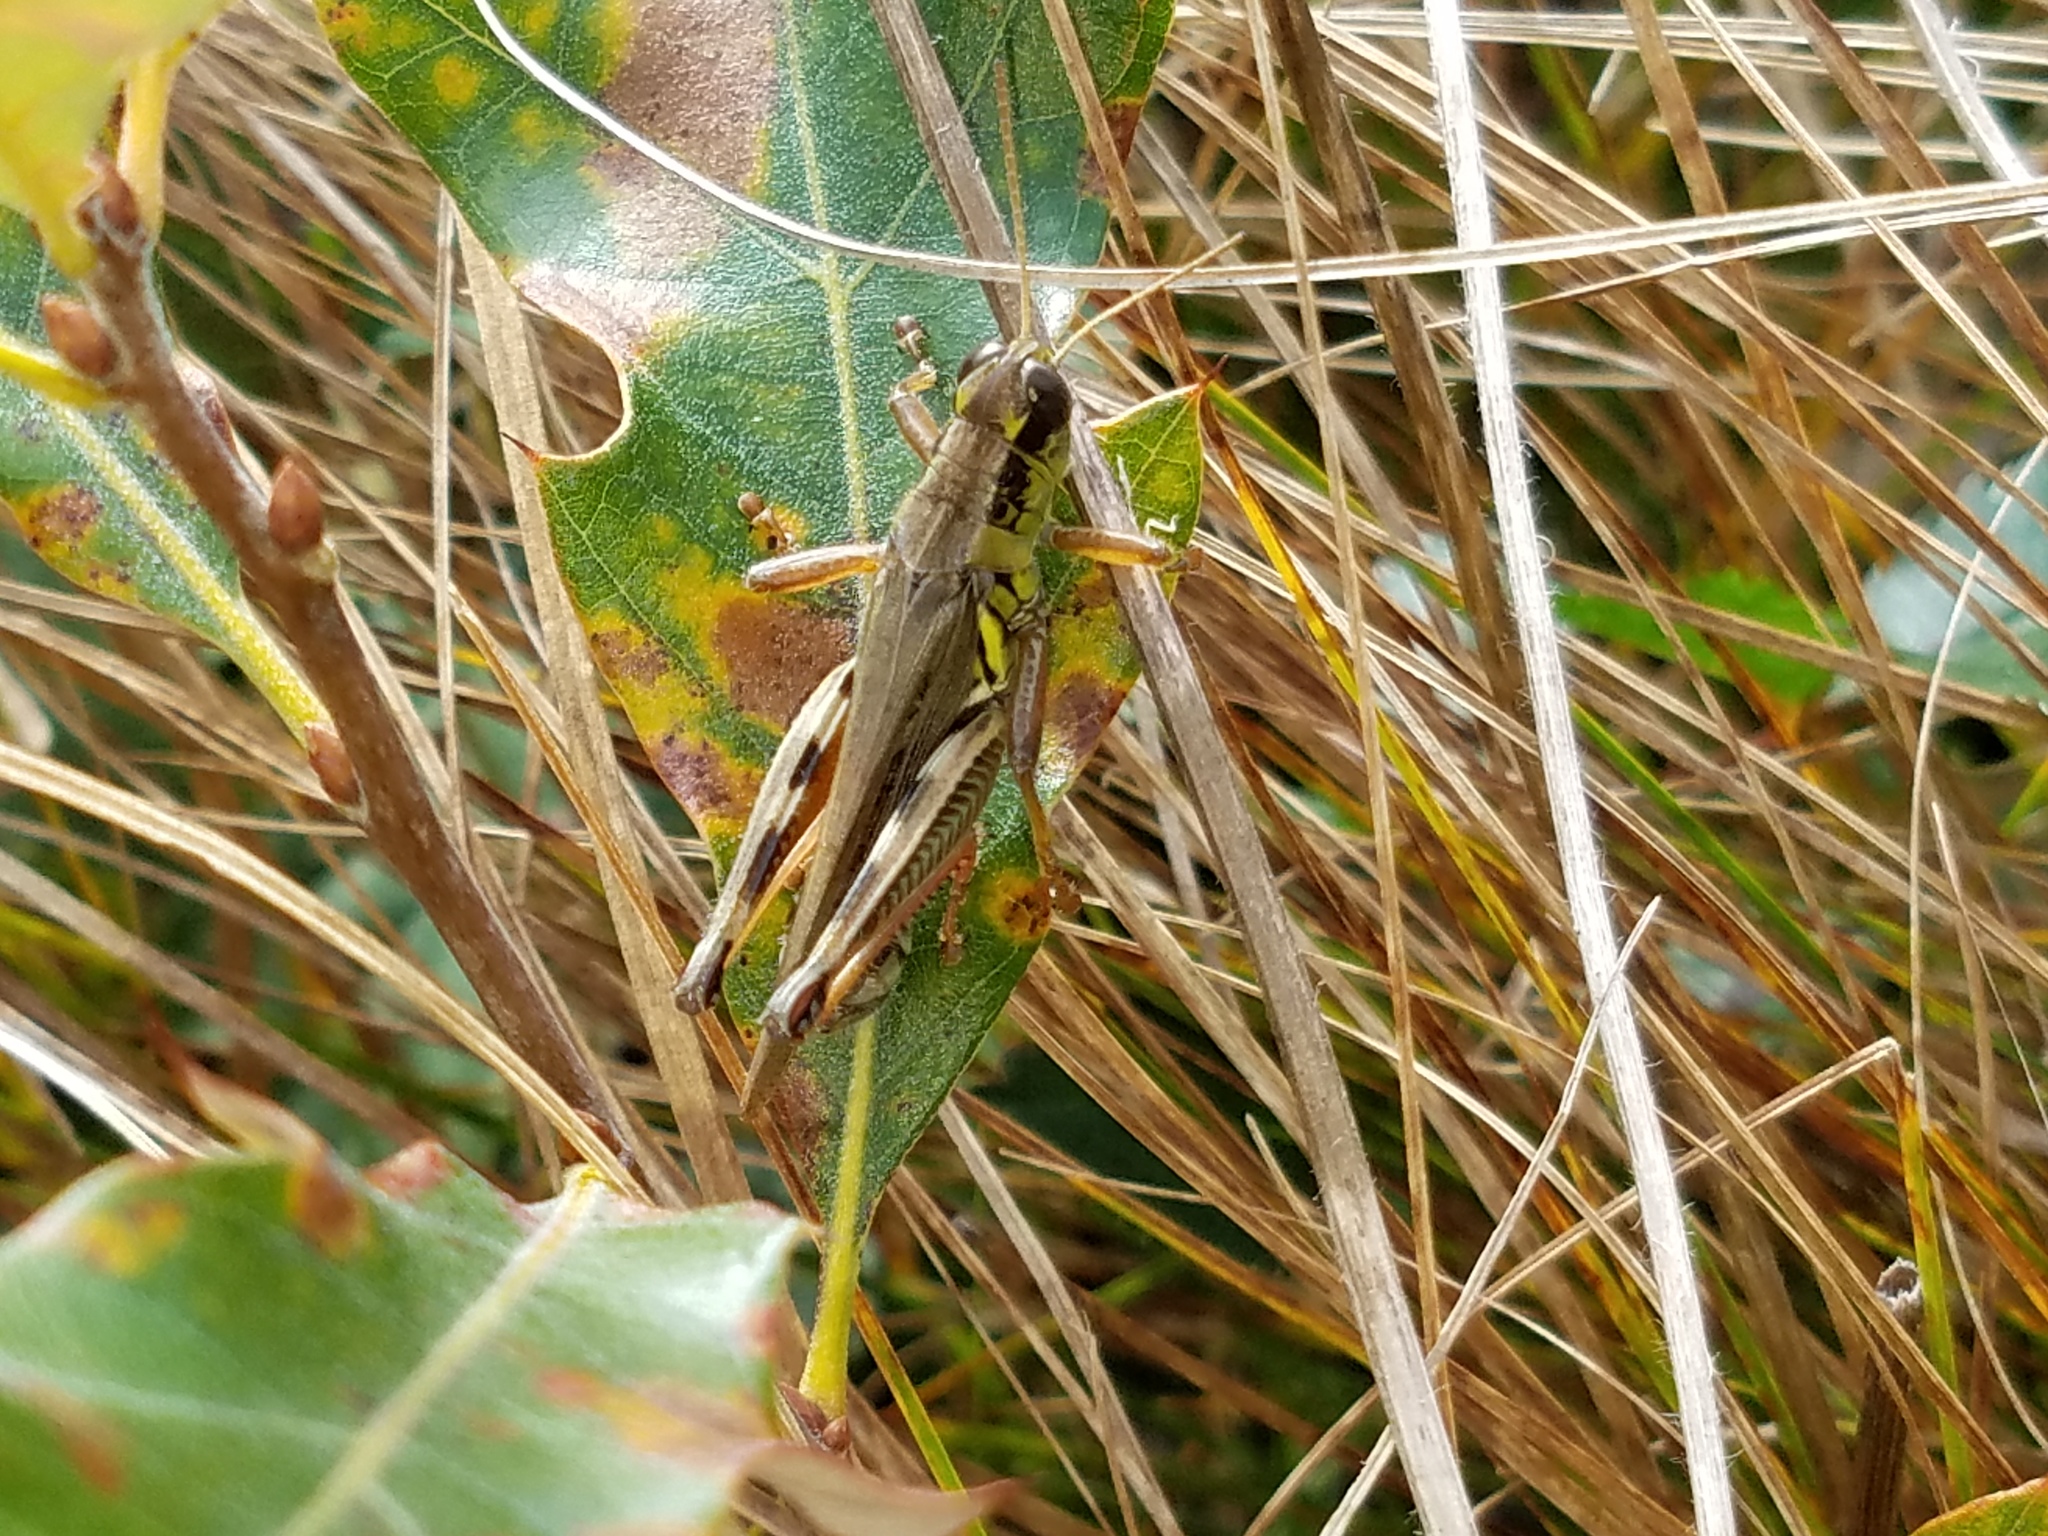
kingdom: Animalia
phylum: Arthropoda
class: Insecta
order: Orthoptera
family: Acrididae
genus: Melanoplus
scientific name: Melanoplus femurrubrum
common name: Red-legged grasshopper
